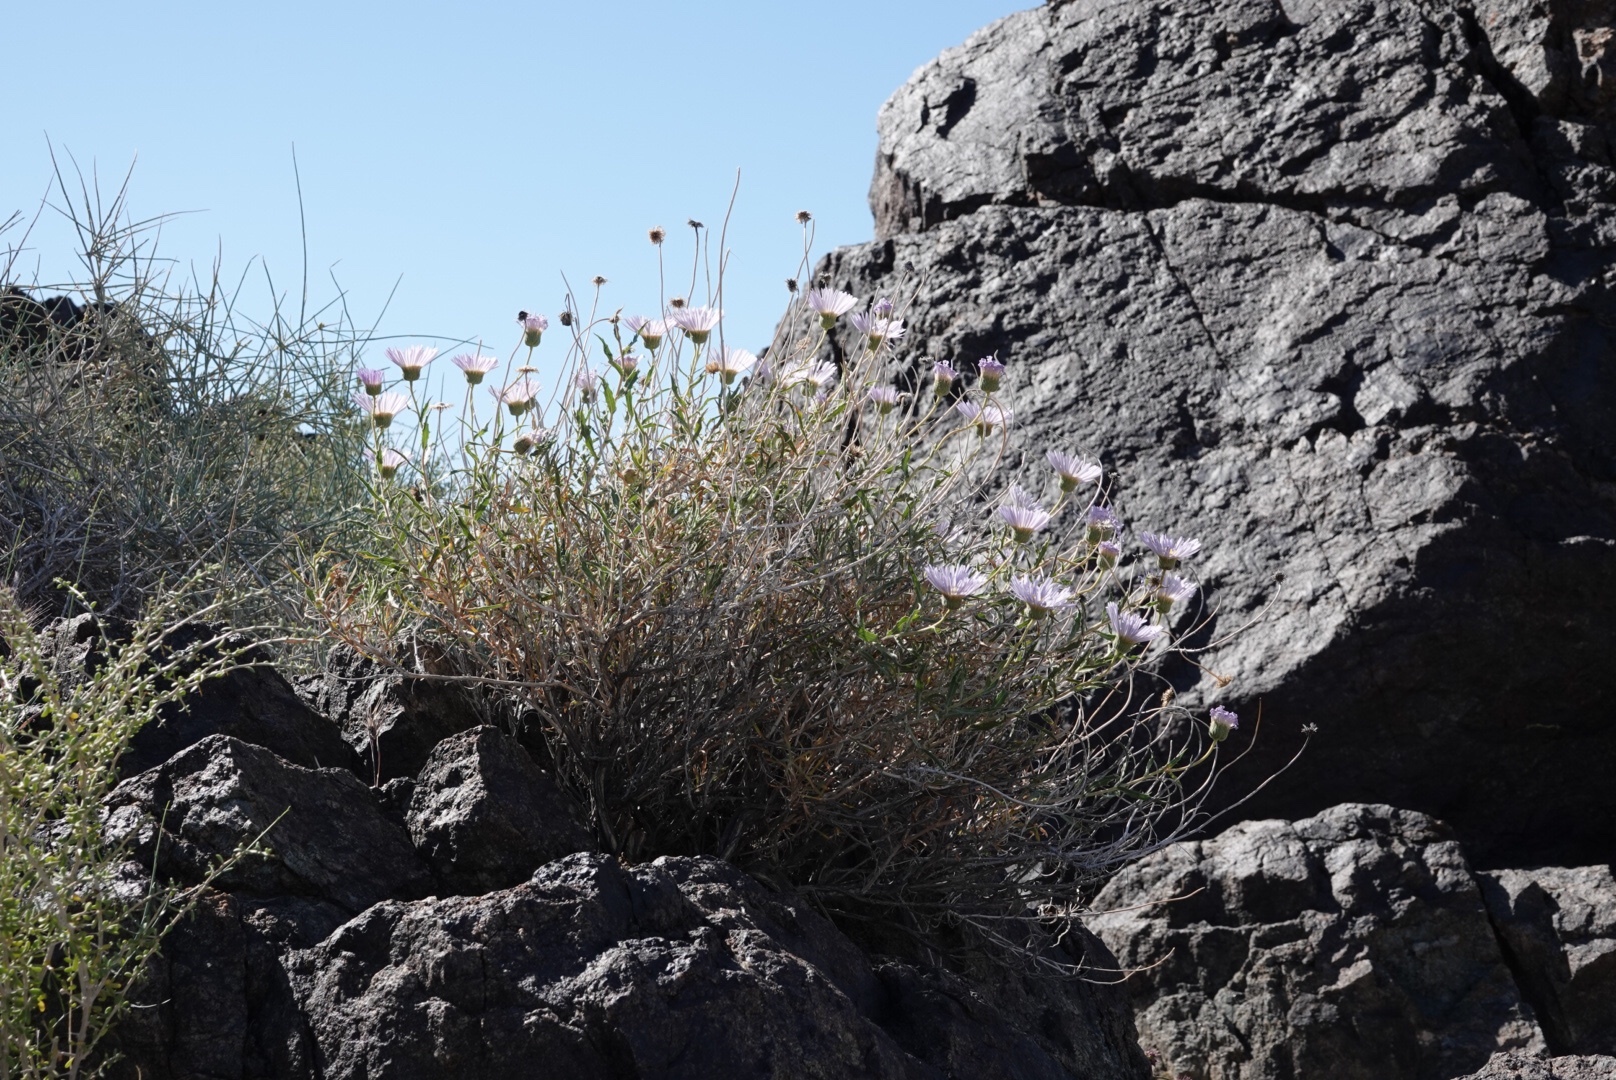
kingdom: Plantae
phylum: Tracheophyta
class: Magnoliopsida
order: Asterales
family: Asteraceae
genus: Xylorhiza
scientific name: Xylorhiza tortifolia
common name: Hurt-leaf woody-aster
